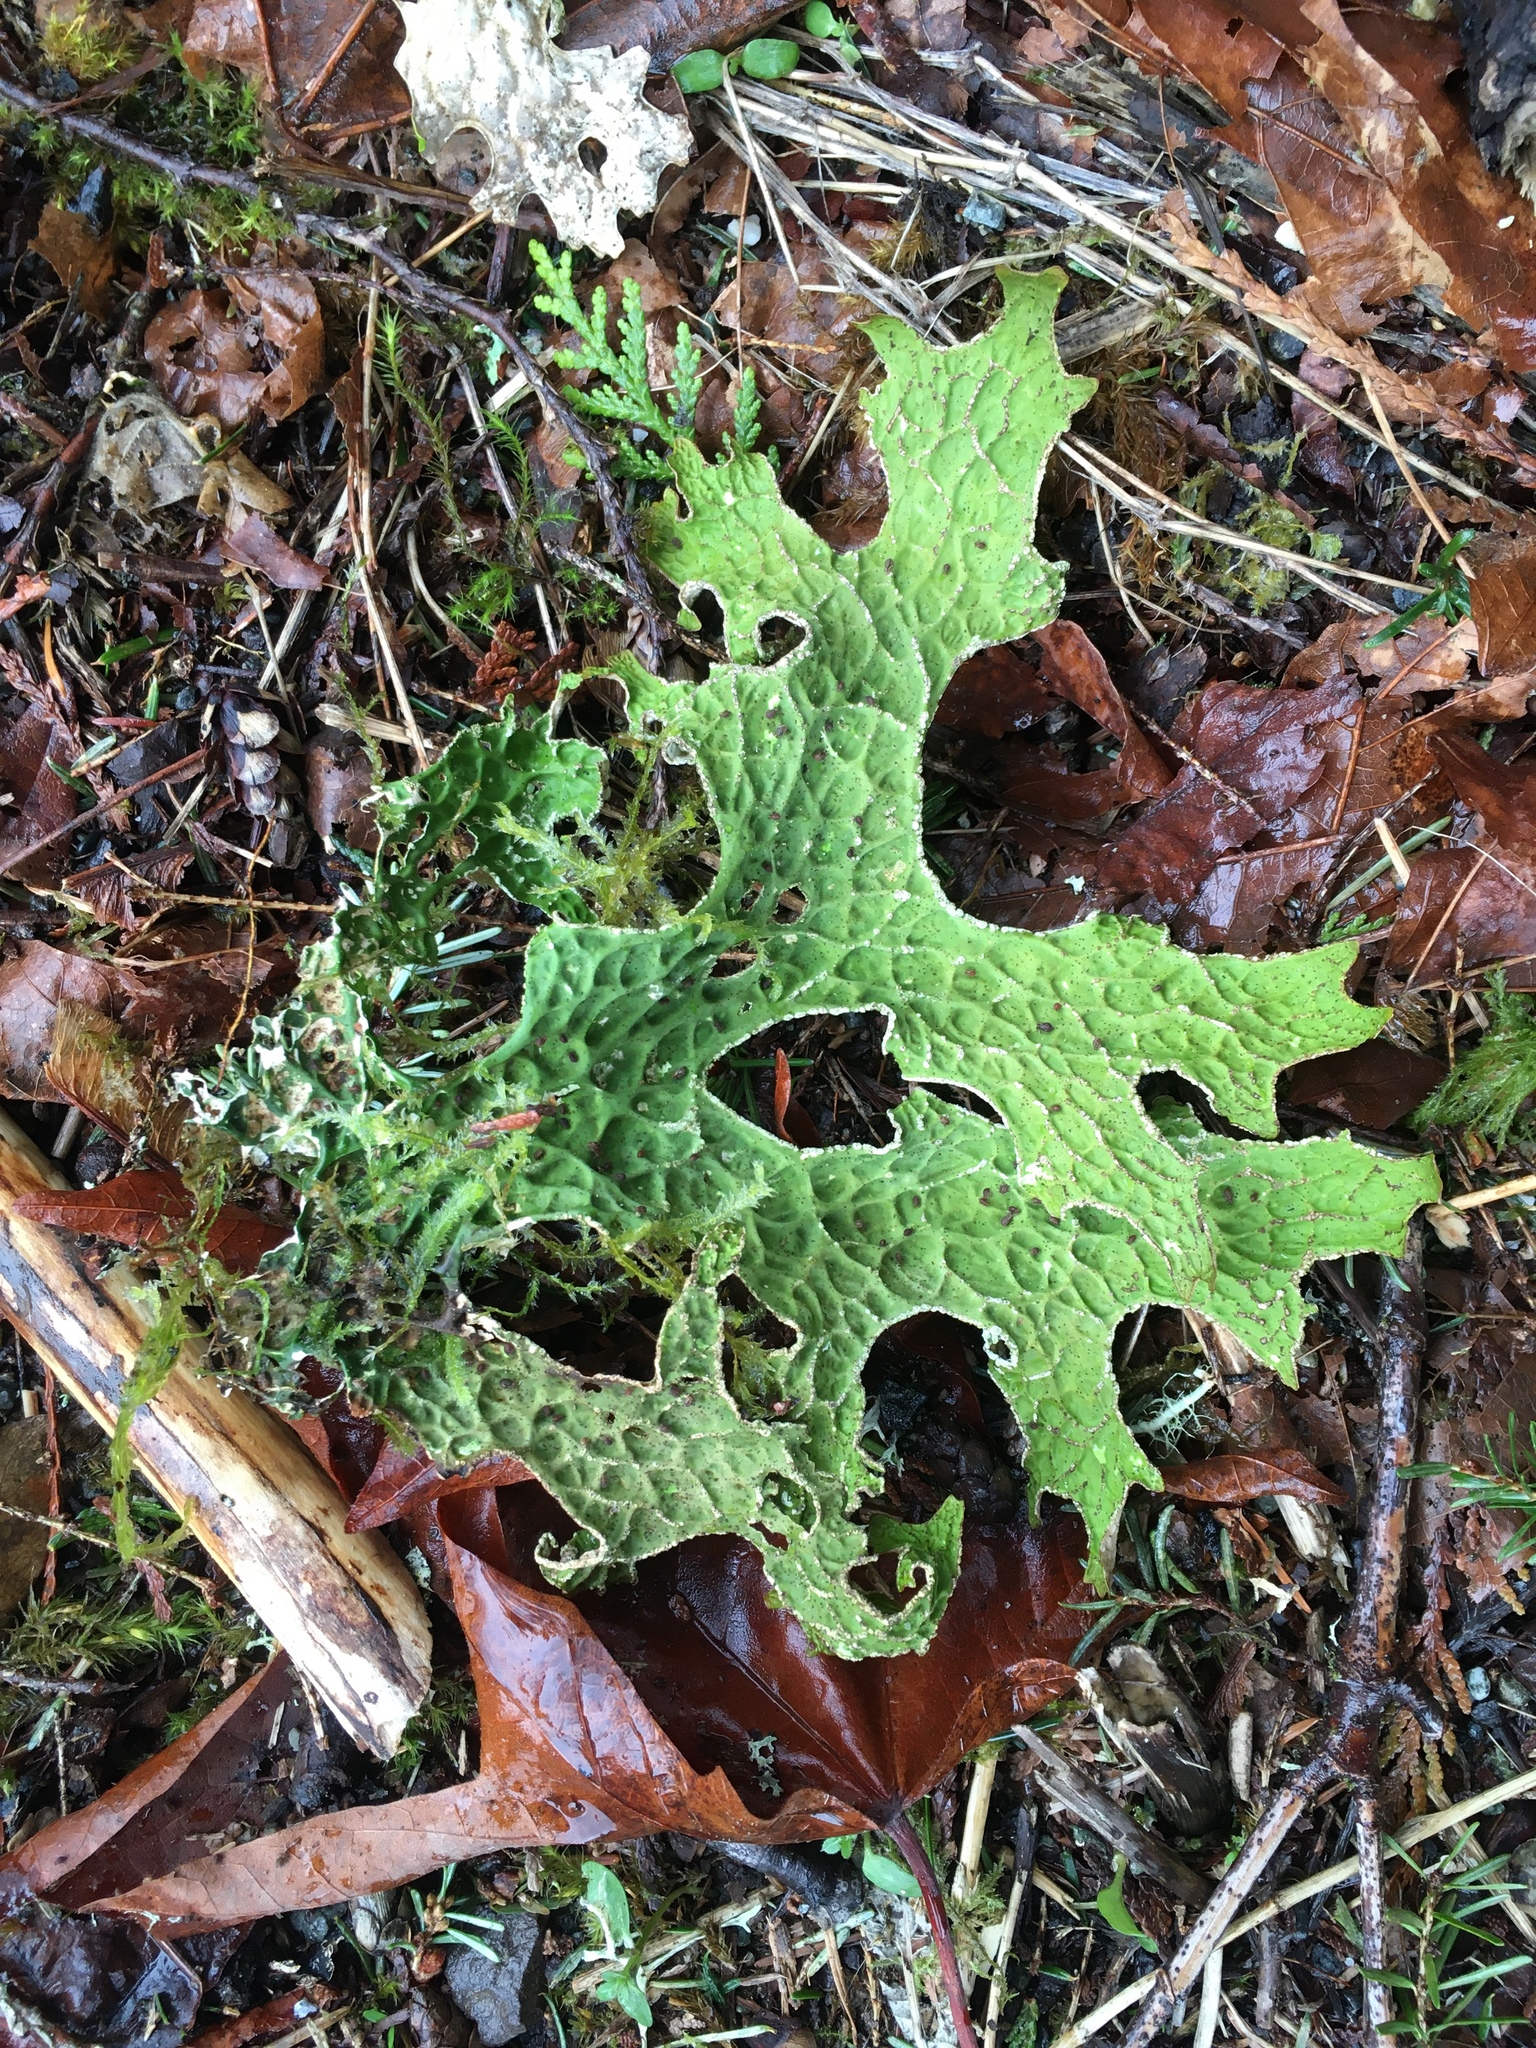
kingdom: Fungi
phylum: Ascomycota
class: Lecanoromycetes
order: Peltigerales
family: Lobariaceae
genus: Lobaria
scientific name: Lobaria pulmonaria
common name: Lungwort
